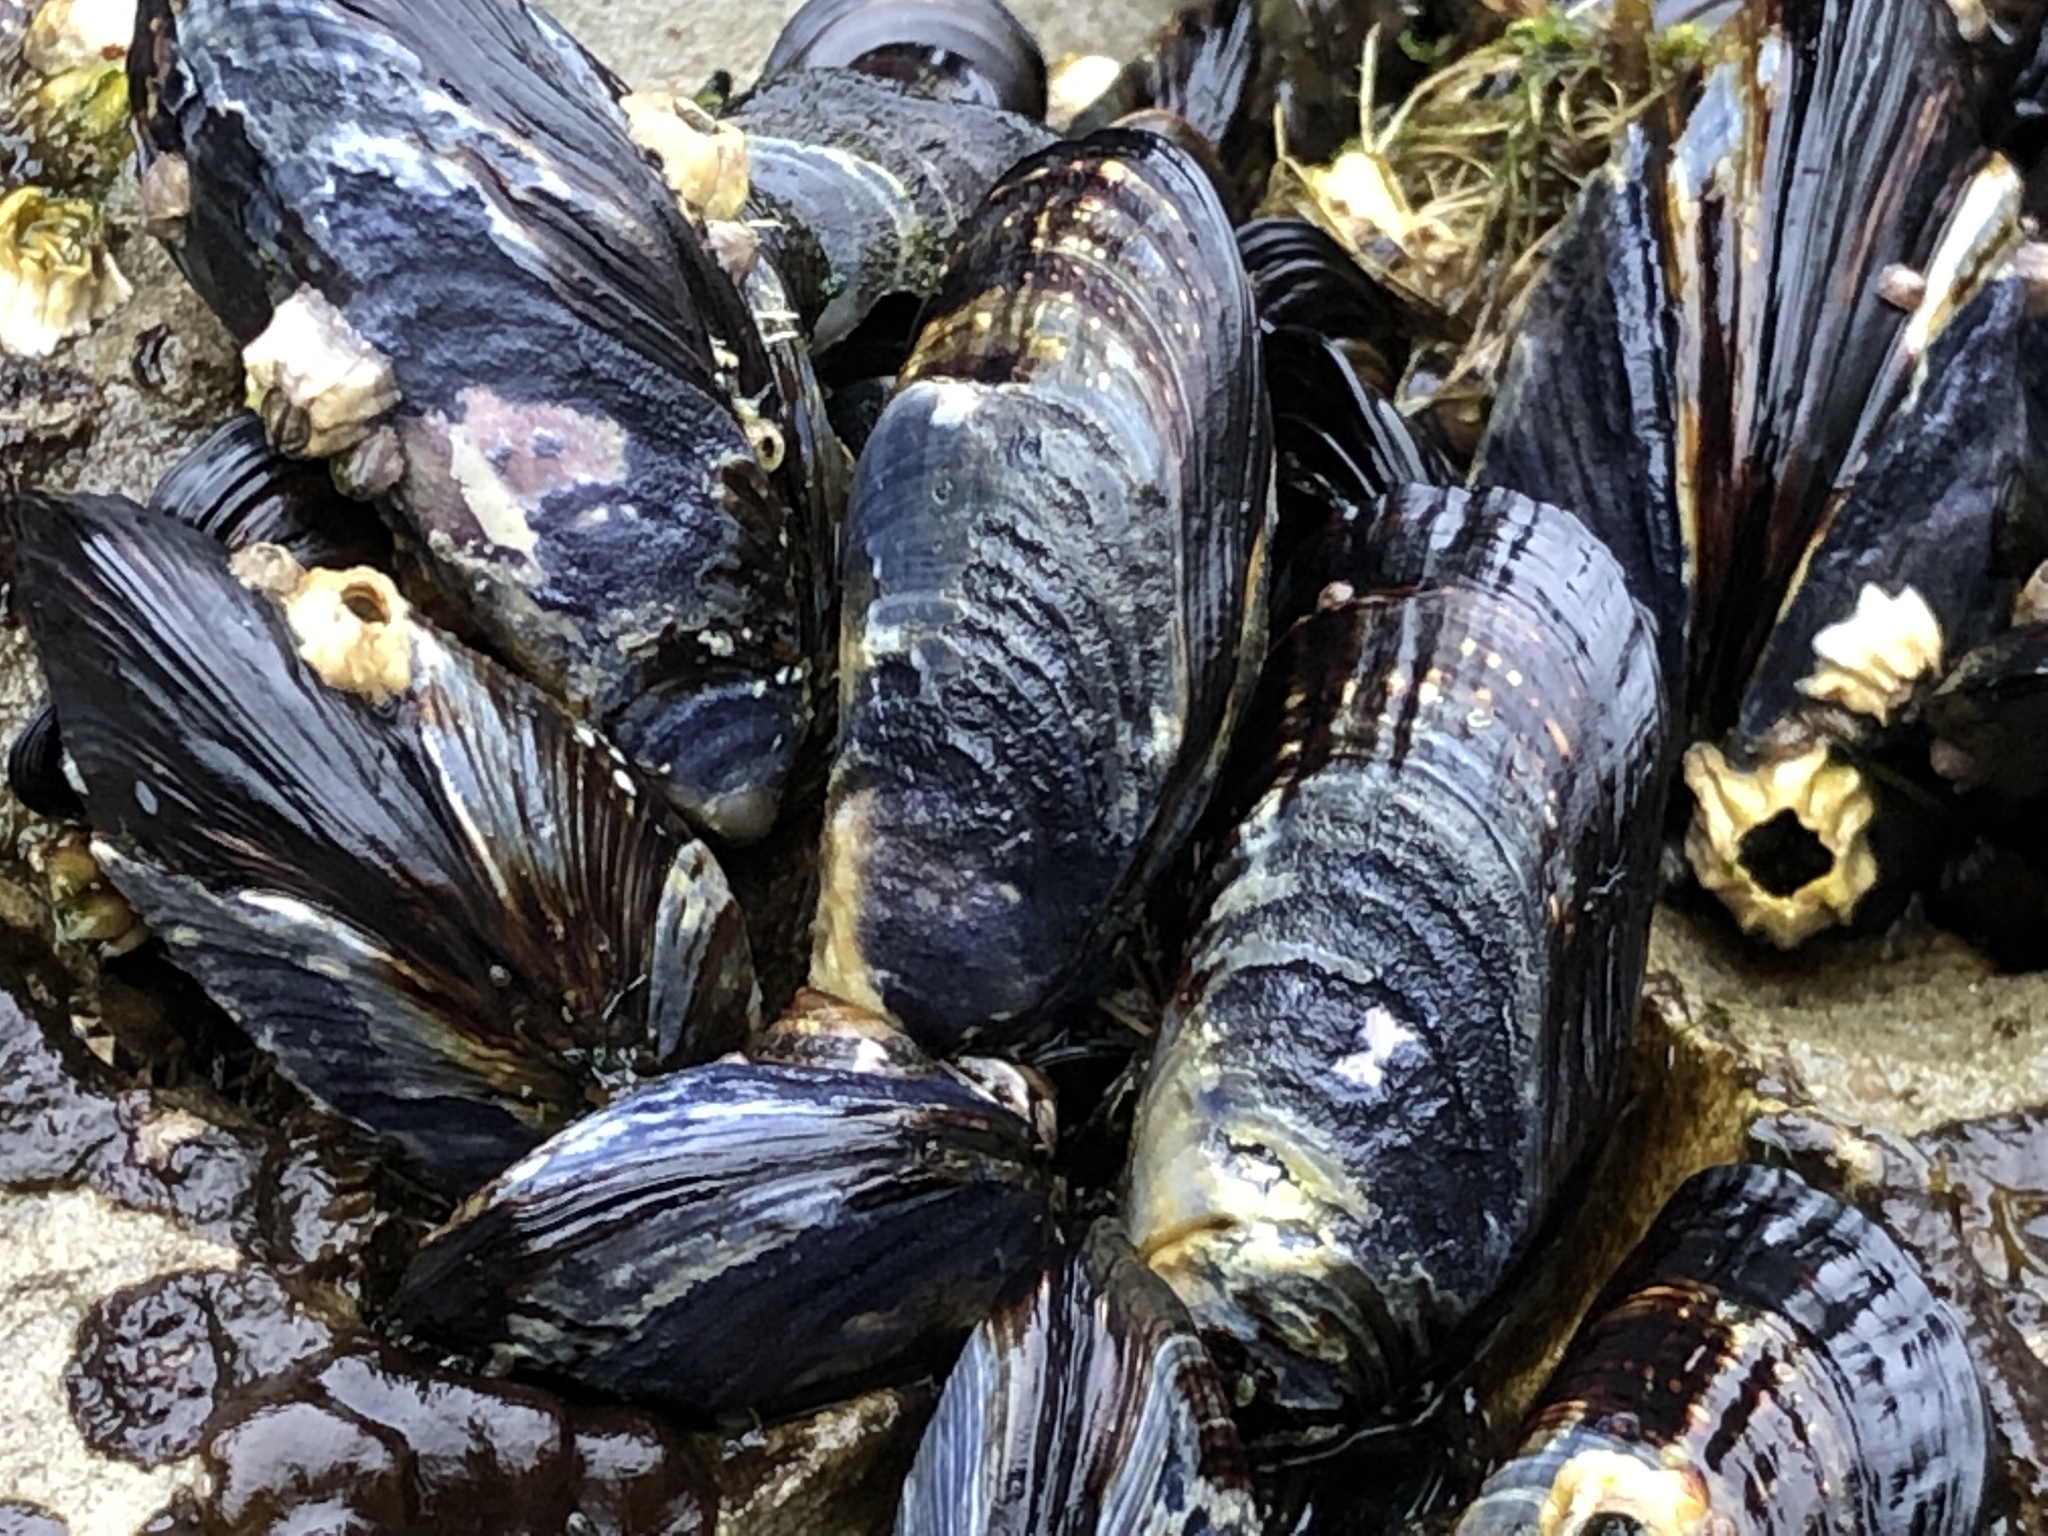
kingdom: Animalia
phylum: Mollusca
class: Bivalvia
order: Mytilida
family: Mytilidae
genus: Mytilus
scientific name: Mytilus californianus
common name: California mussel
